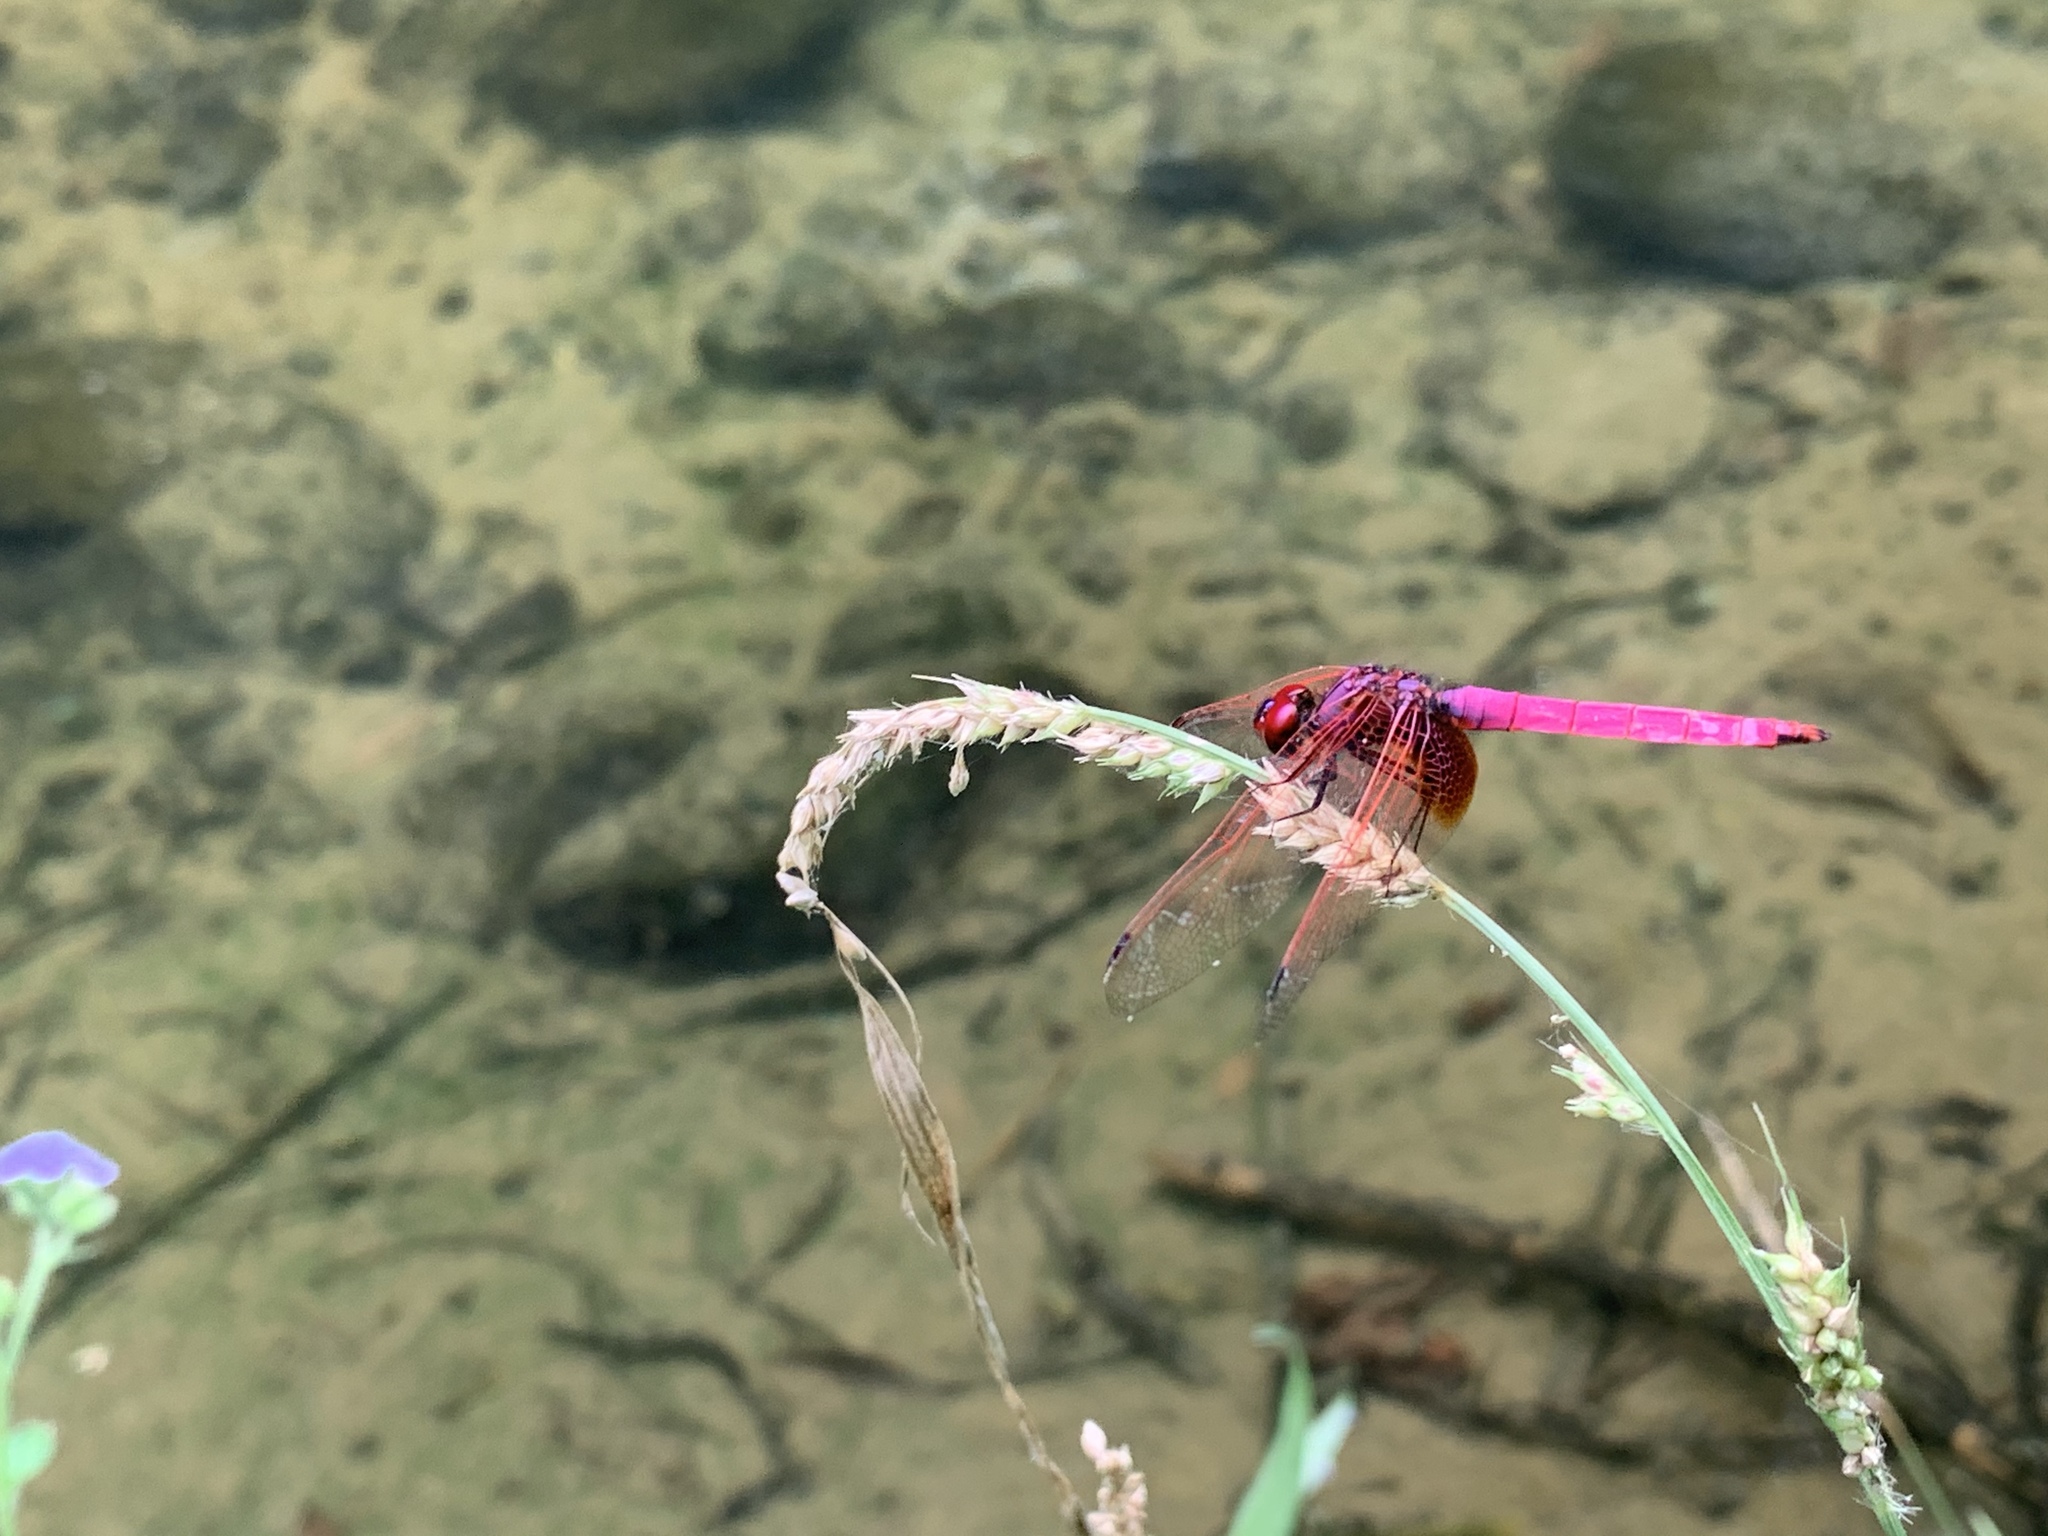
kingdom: Animalia
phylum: Arthropoda
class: Insecta
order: Odonata
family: Libellulidae
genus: Trithemis
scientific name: Trithemis aurora
